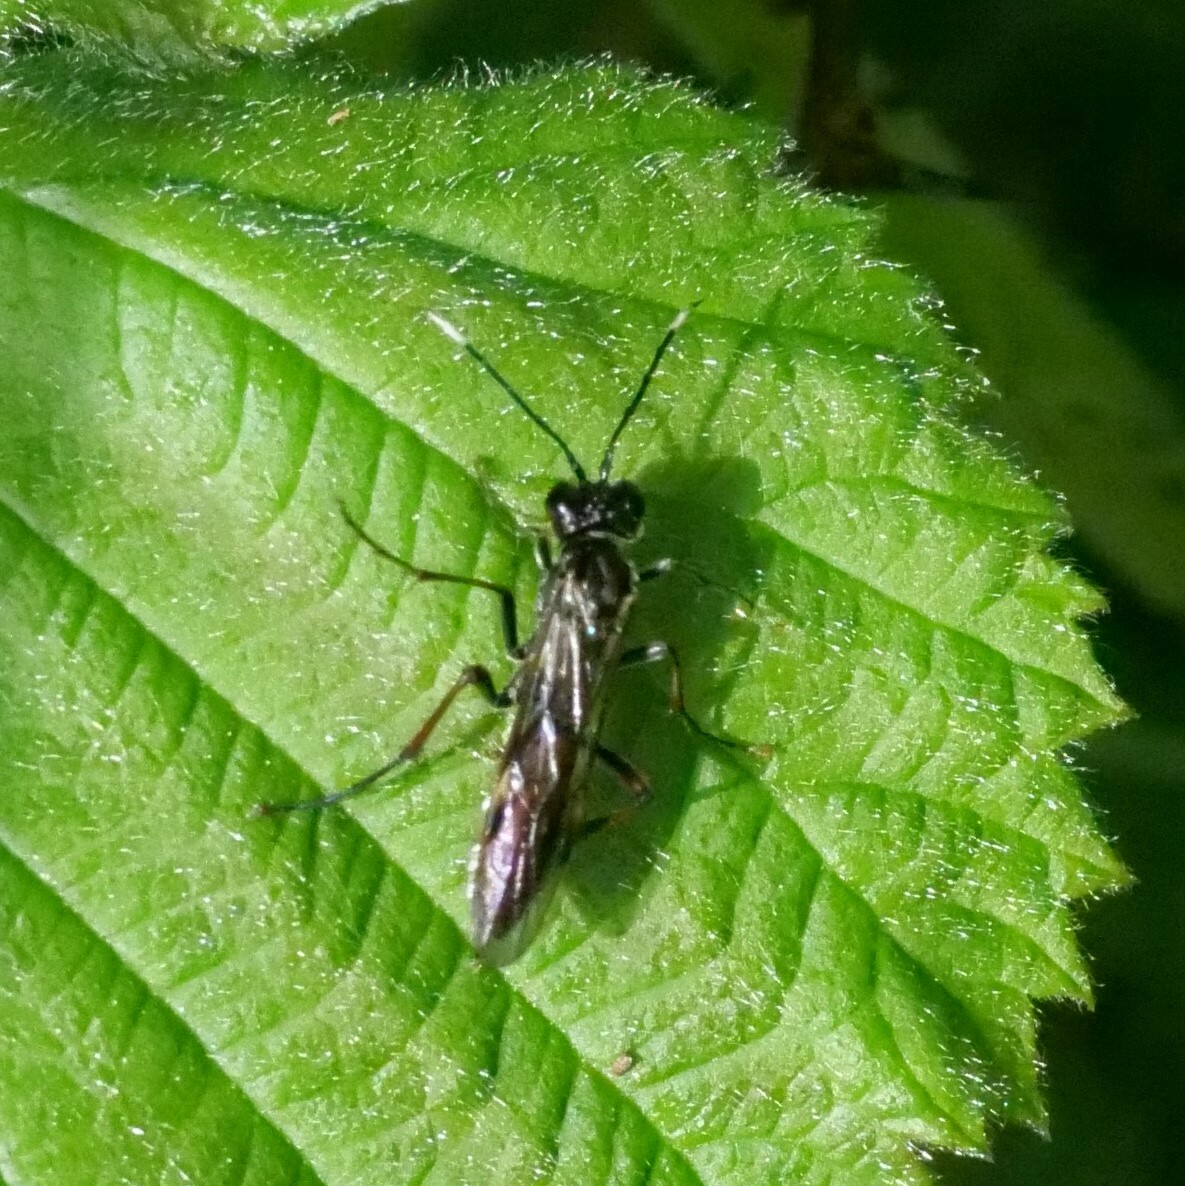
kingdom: Animalia
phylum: Arthropoda
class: Insecta
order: Hymenoptera
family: Tenthredinidae
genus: Tenthredo
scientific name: Tenthredo livida
